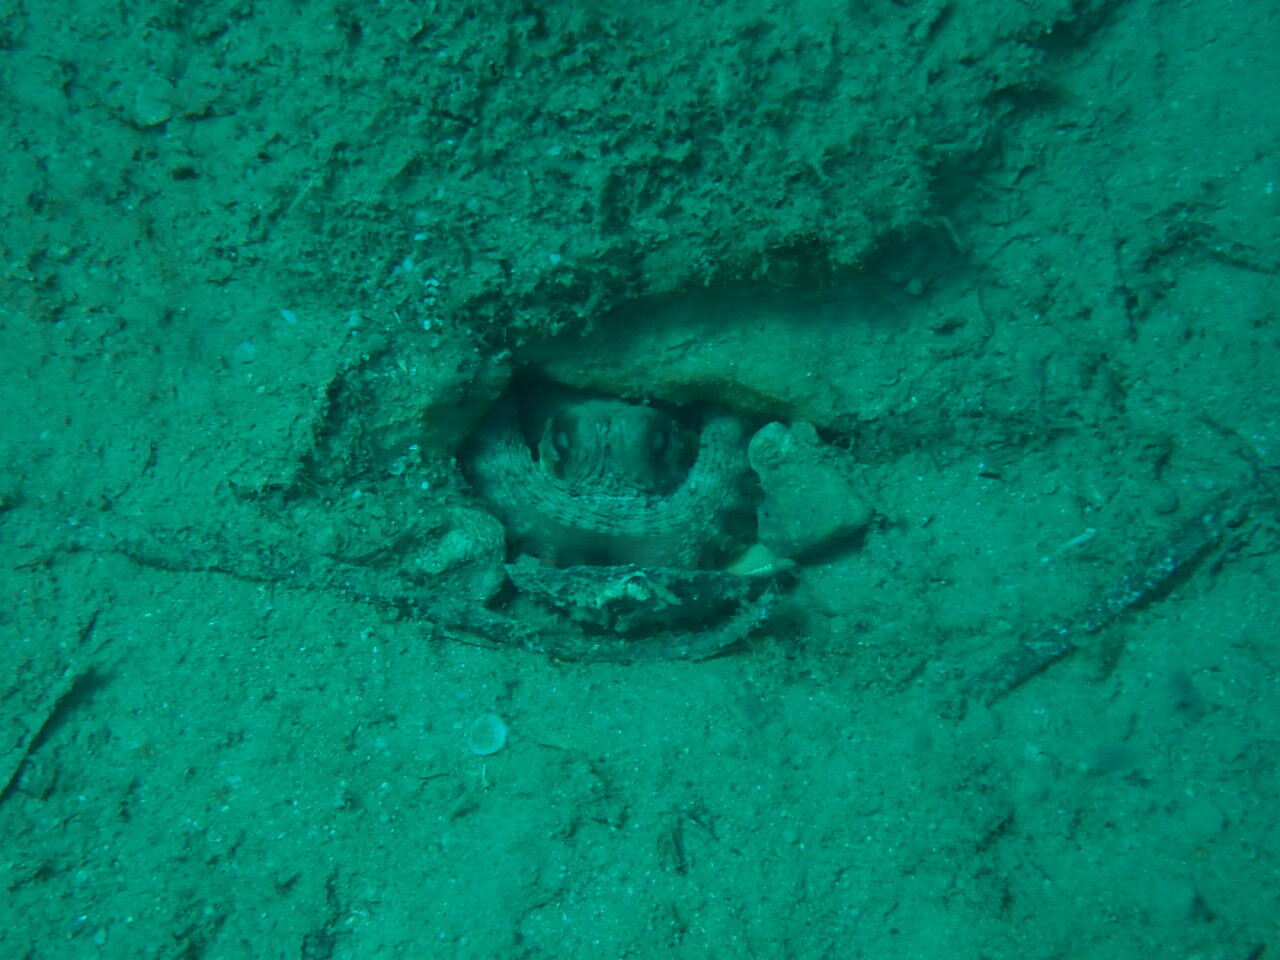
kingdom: Animalia
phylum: Mollusca
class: Cephalopoda
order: Octopoda
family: Octopodidae
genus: Octopus
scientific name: Octopus vulgaris
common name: Common octopus
